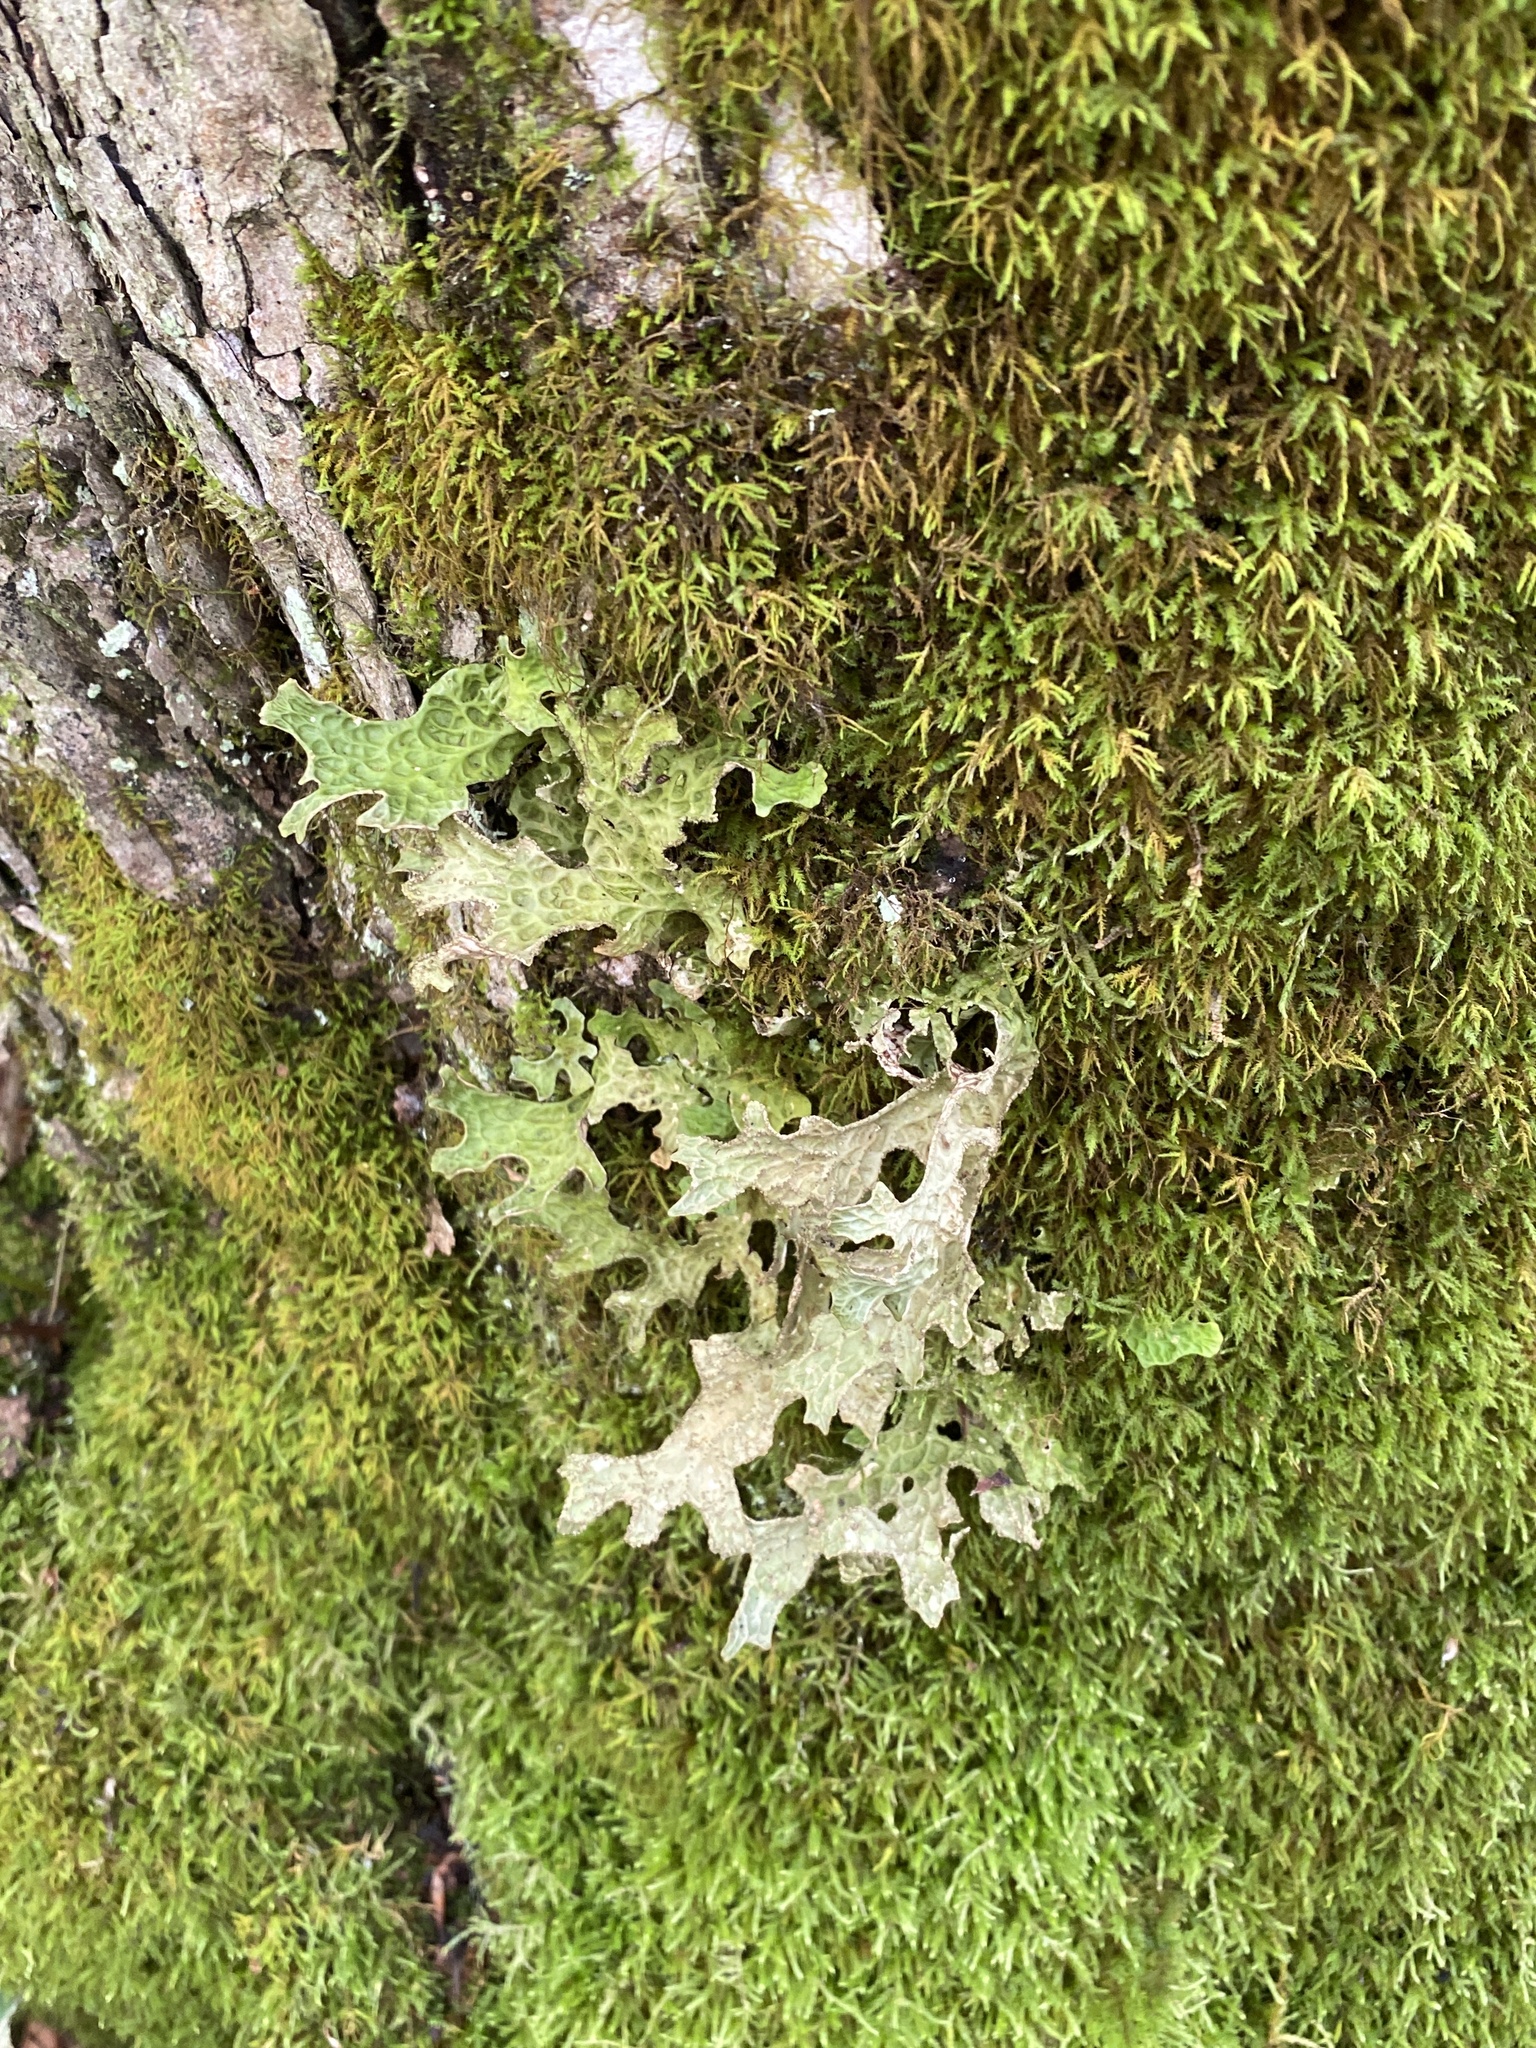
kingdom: Fungi
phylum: Ascomycota
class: Lecanoromycetes
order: Peltigerales
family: Lobariaceae
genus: Lobaria
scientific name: Lobaria pulmonaria
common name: Lungwort
